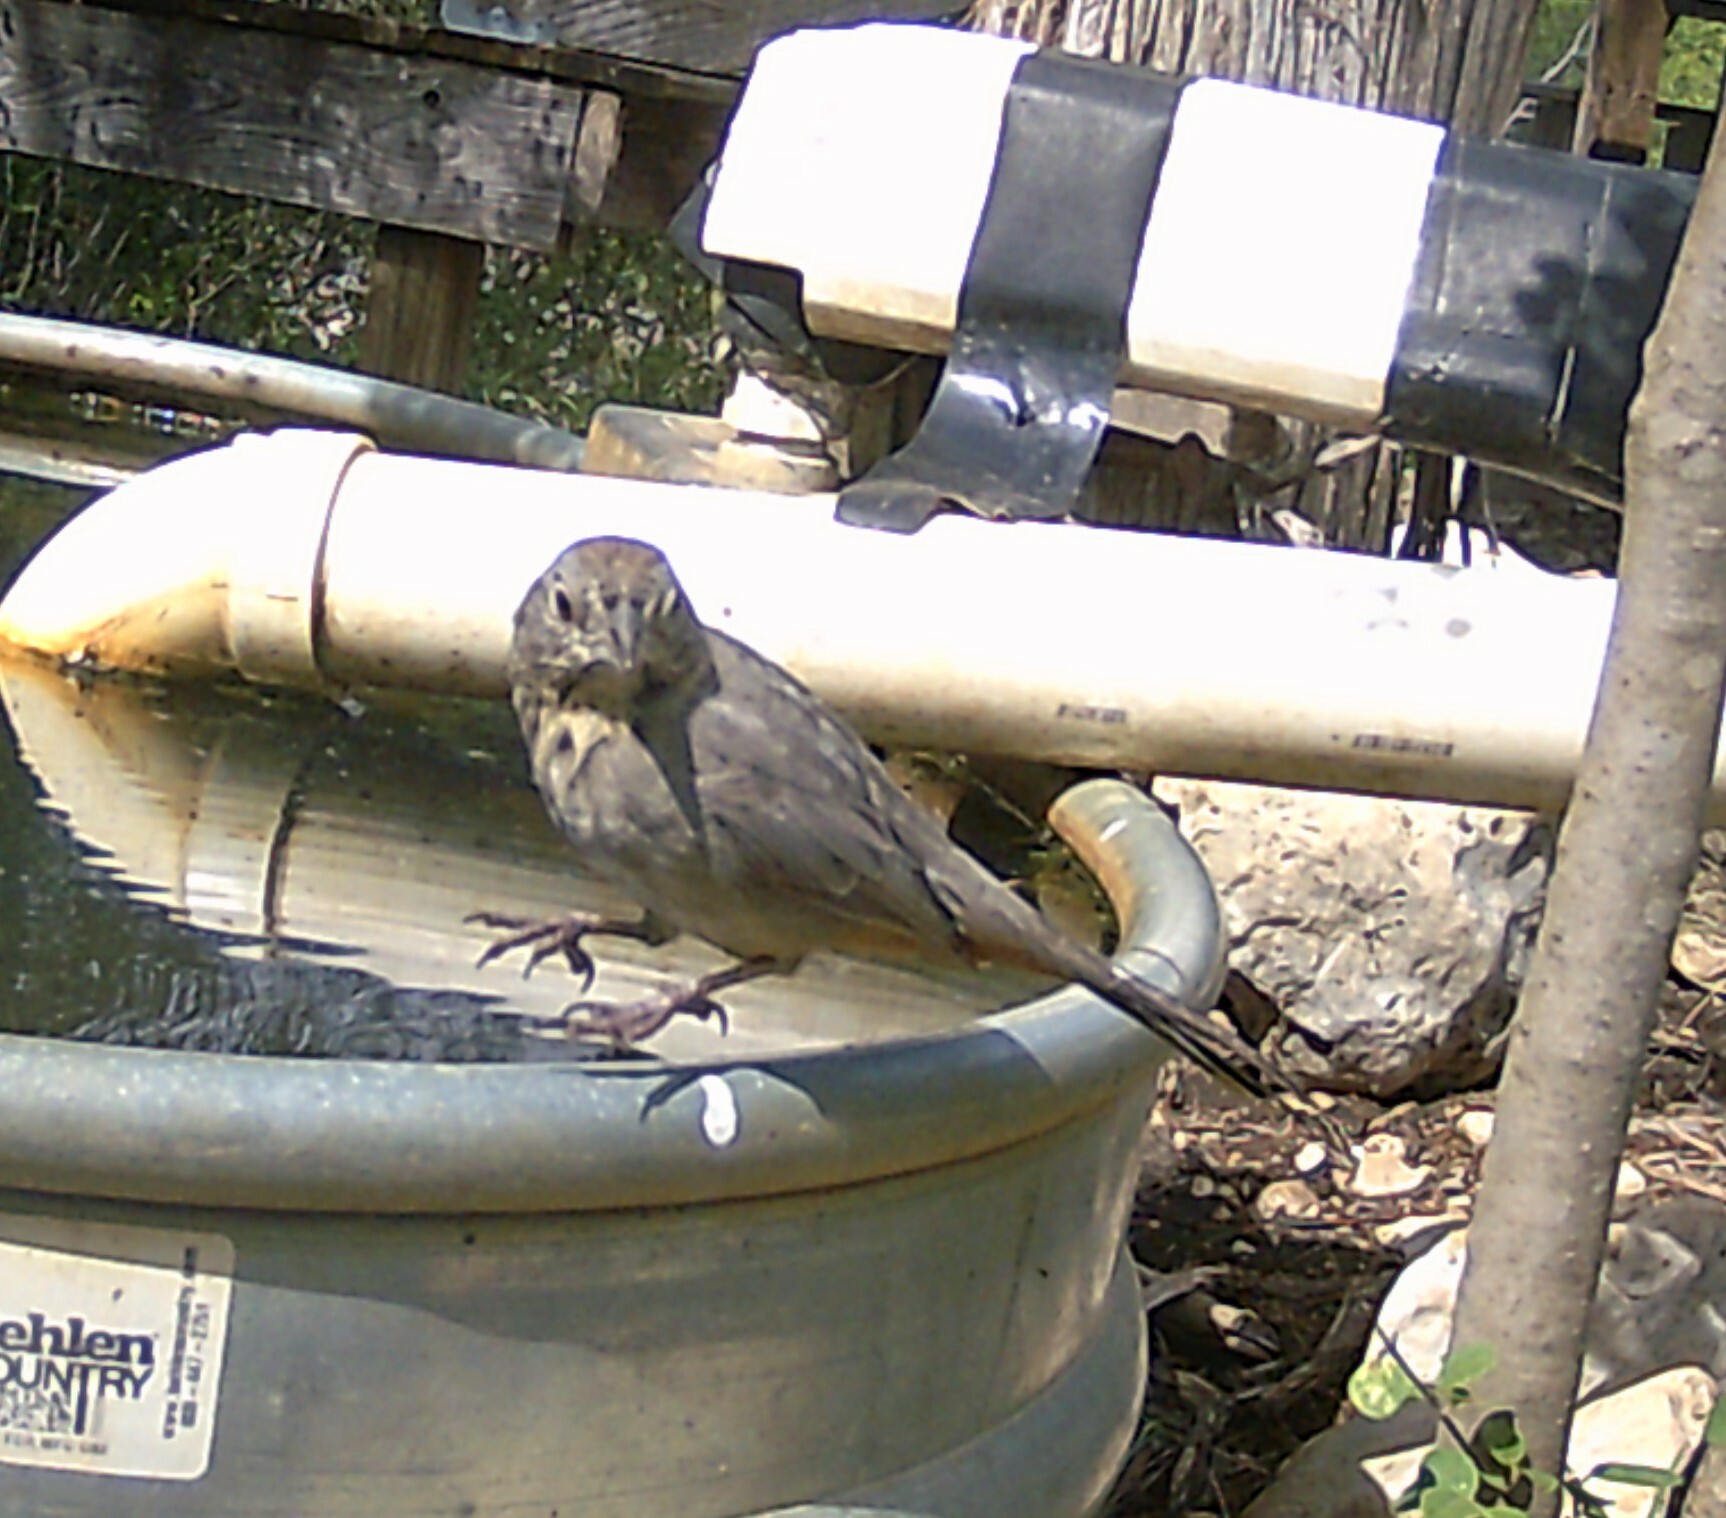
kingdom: Animalia
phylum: Chordata
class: Aves
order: Passeriformes
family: Passerellidae
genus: Melozone
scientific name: Melozone fusca
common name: Canyon towhee
